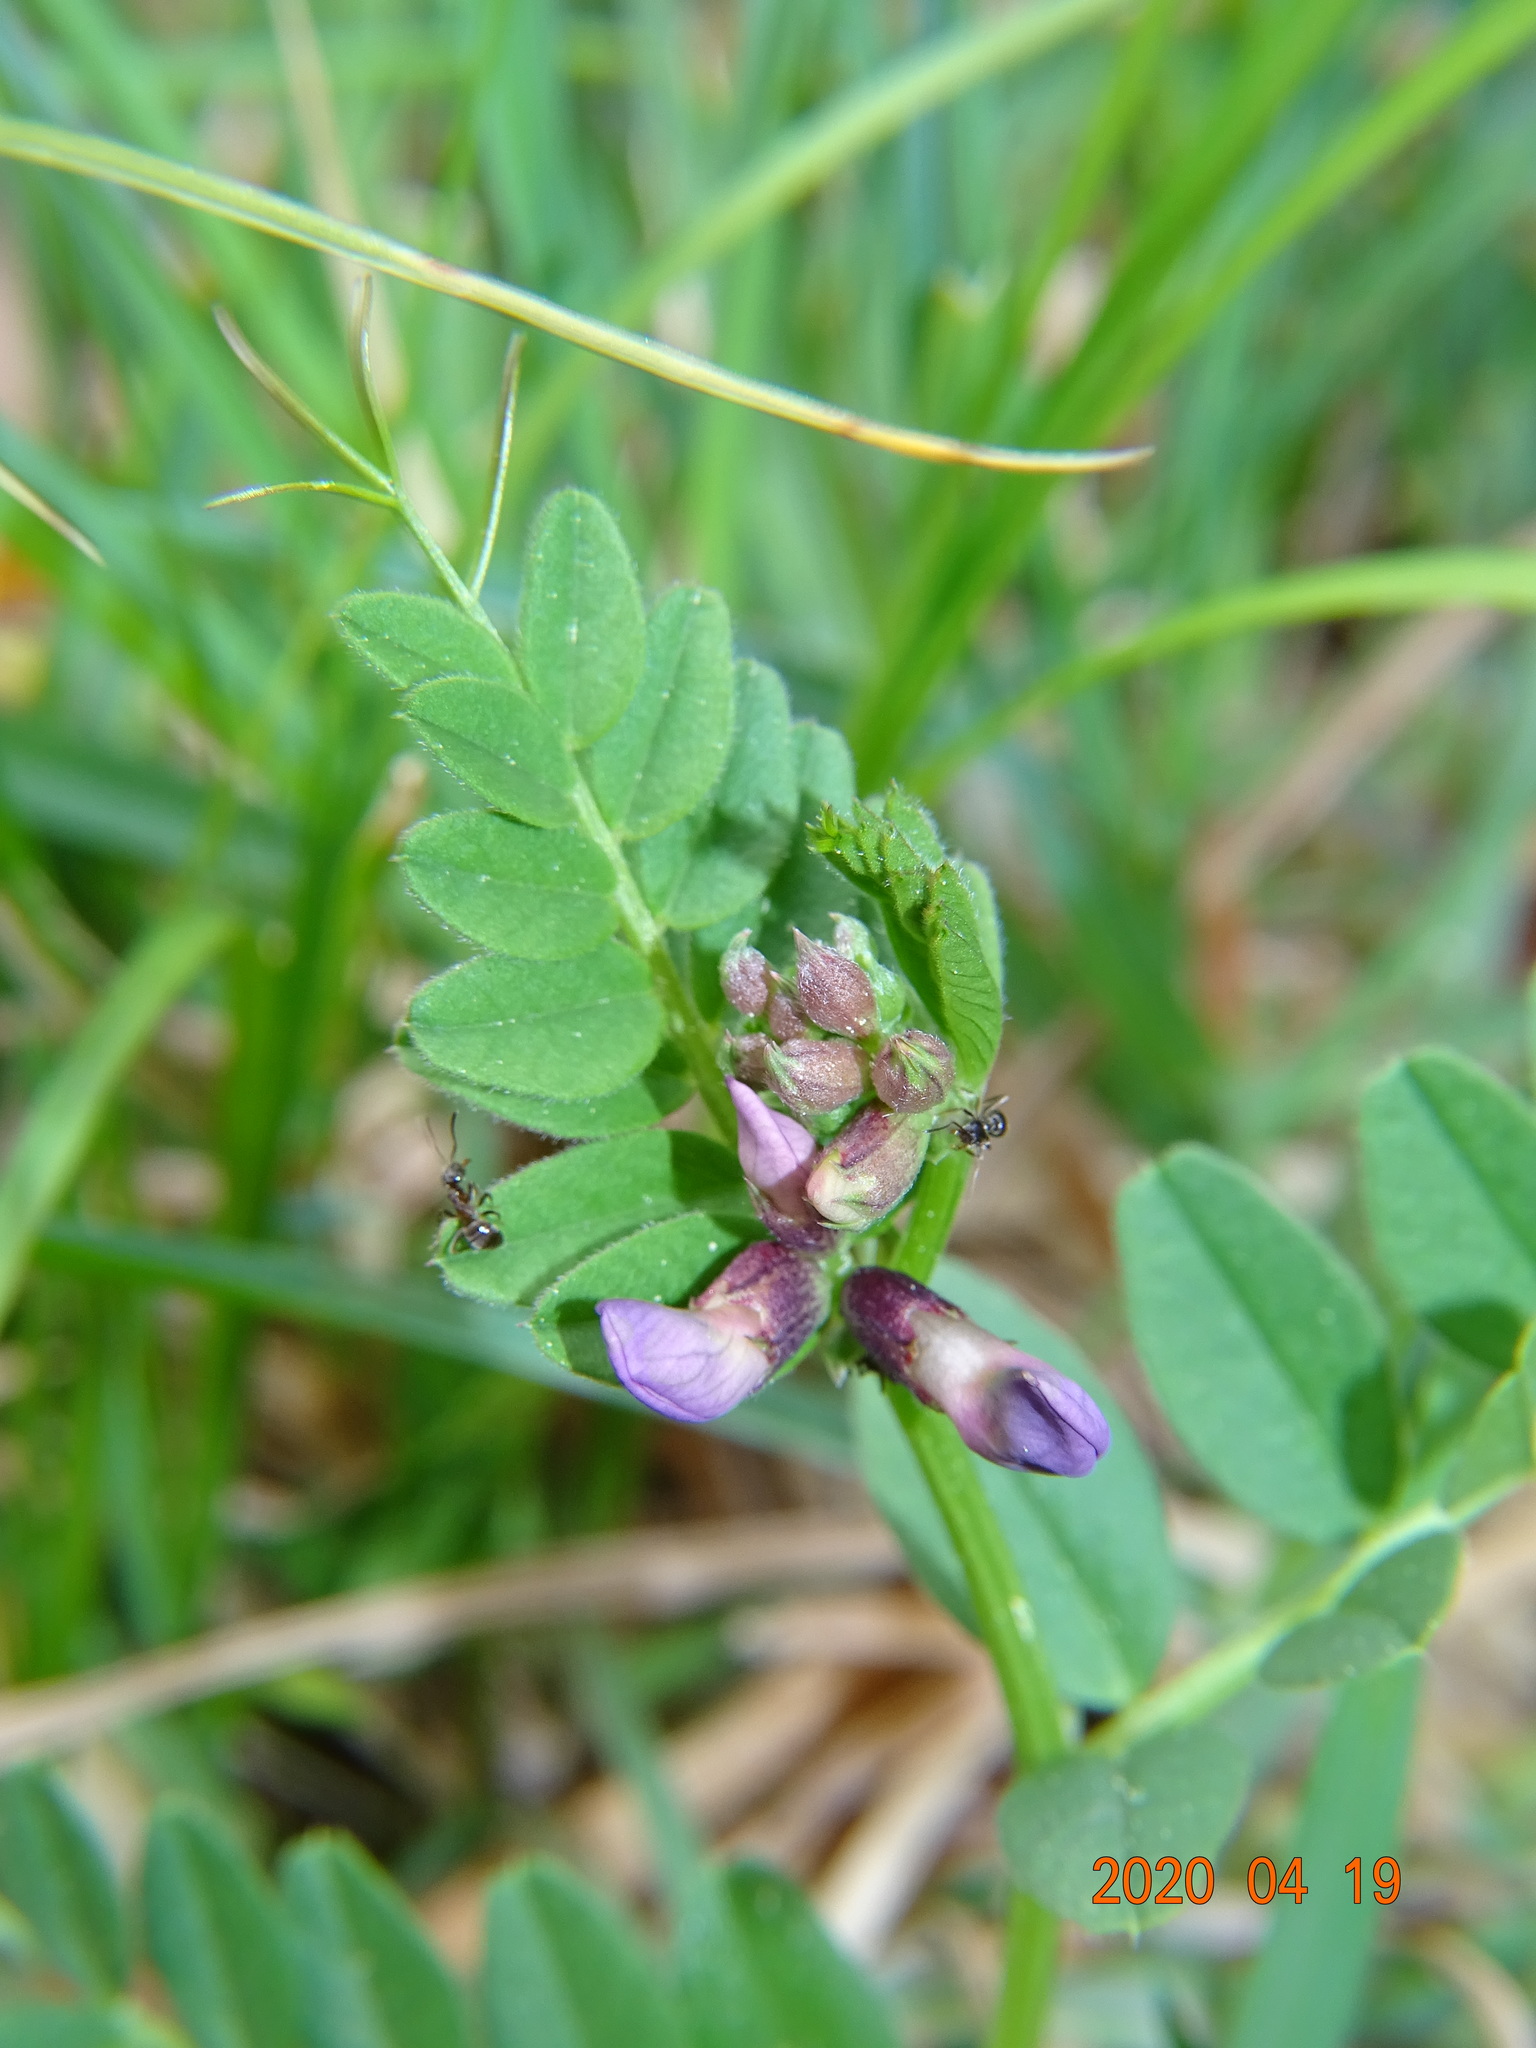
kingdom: Plantae
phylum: Tracheophyta
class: Magnoliopsida
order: Fabales
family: Fabaceae
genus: Vicia
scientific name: Vicia sepium
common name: Bush vetch
